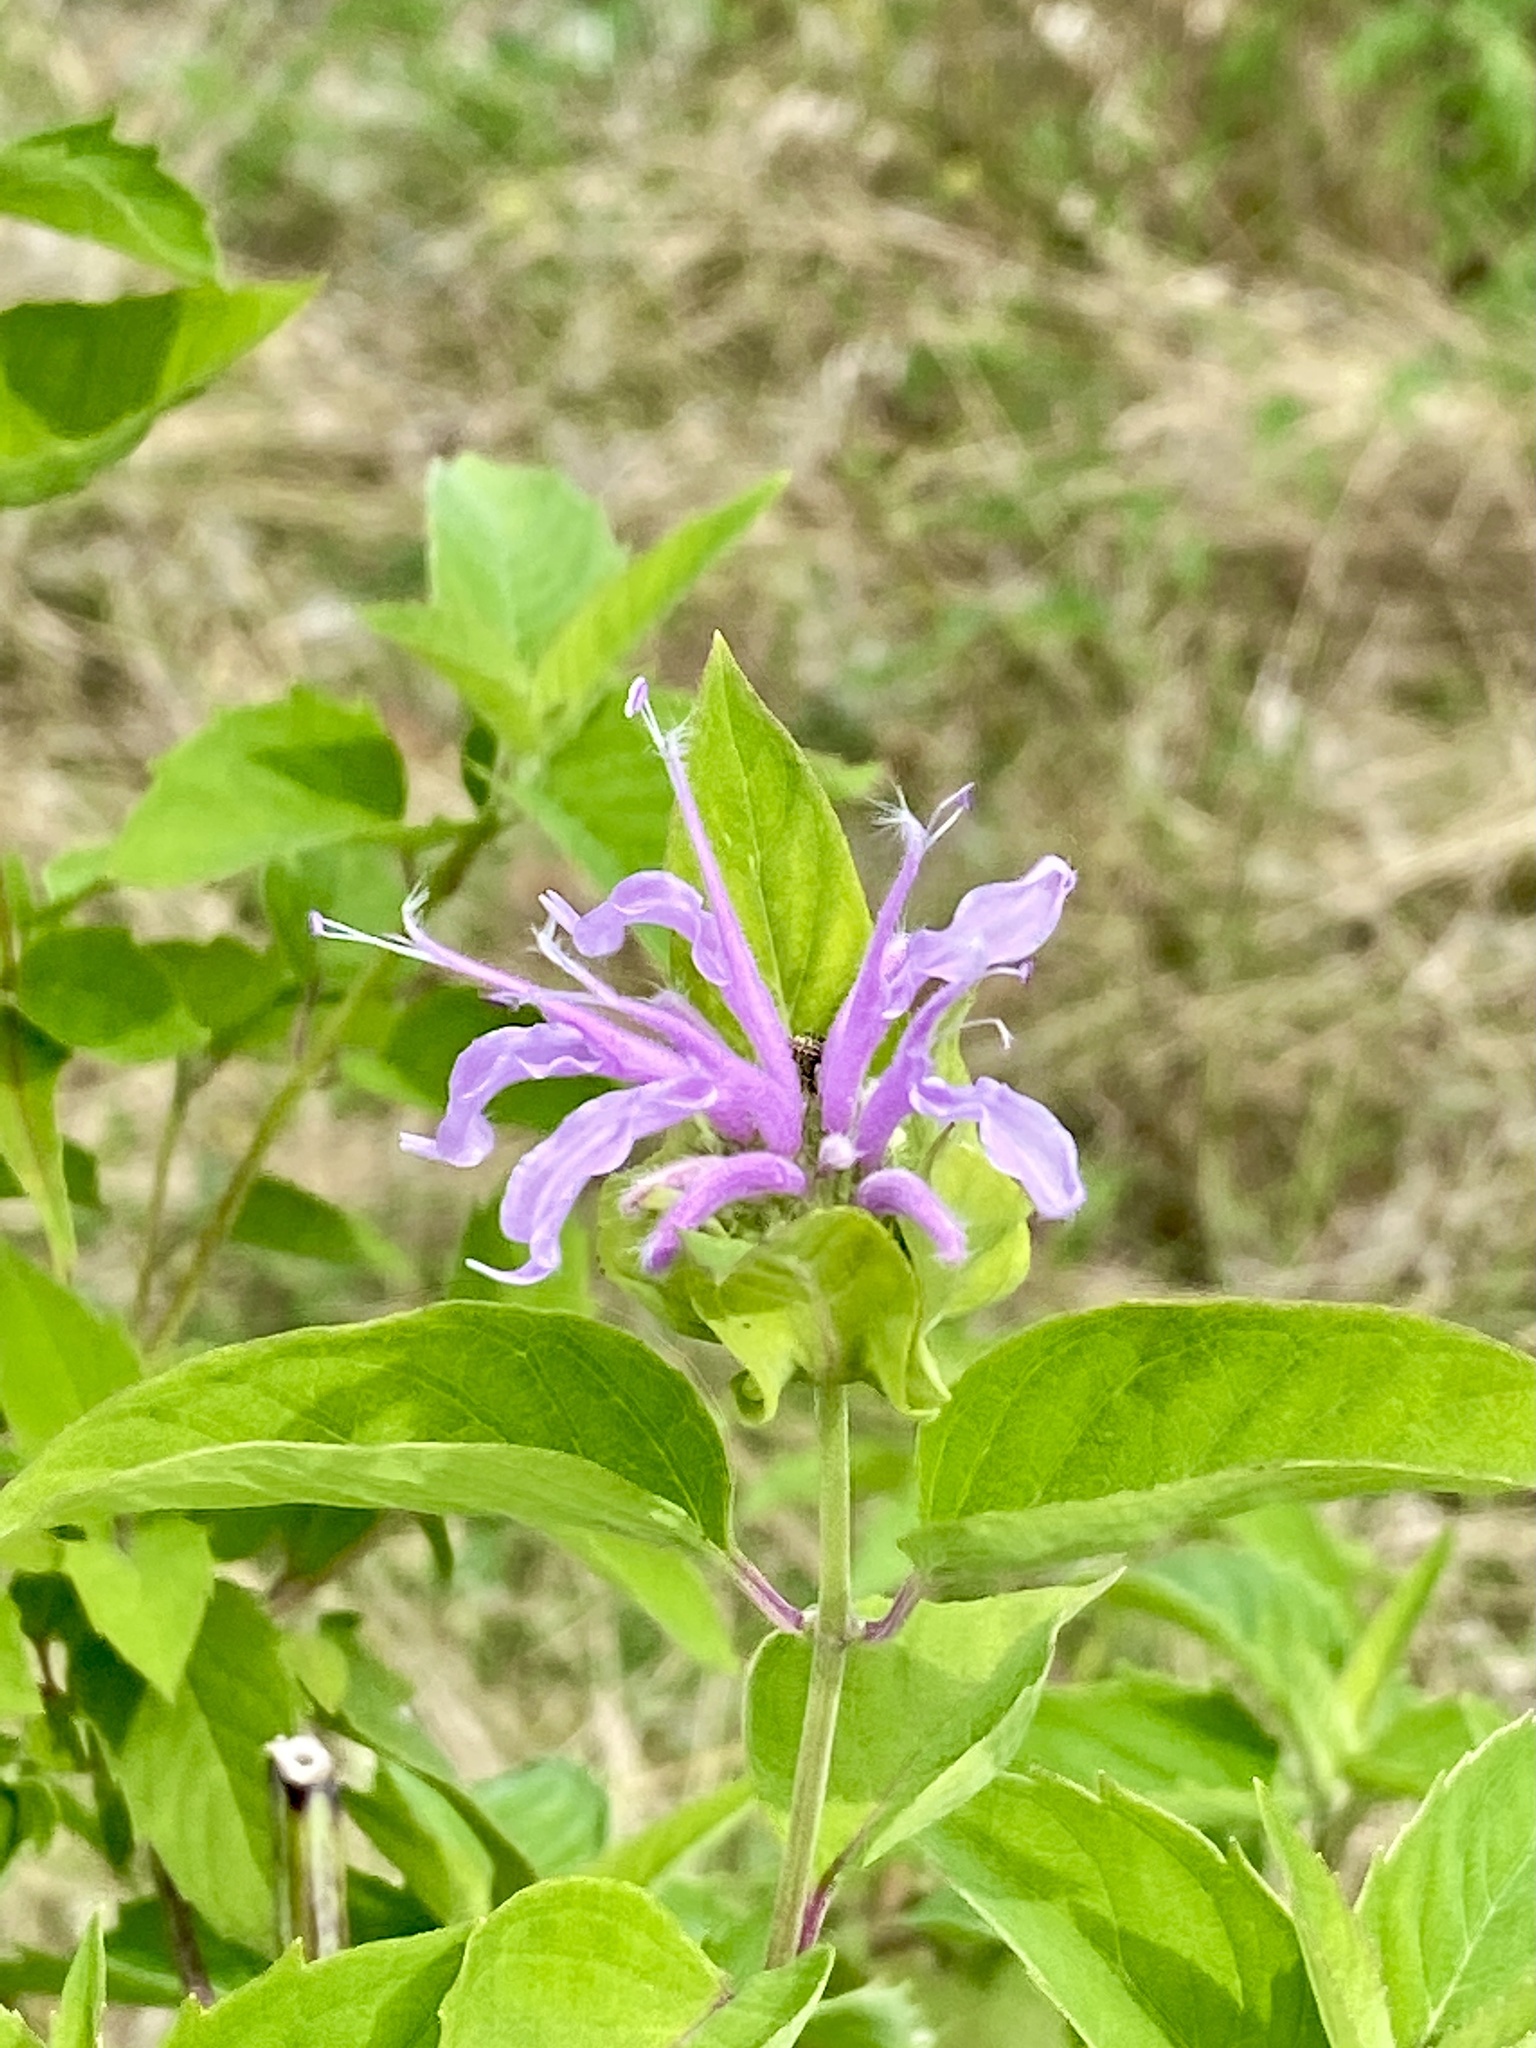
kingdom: Plantae
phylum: Tracheophyta
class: Magnoliopsida
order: Lamiales
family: Lamiaceae
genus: Monarda
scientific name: Monarda fistulosa
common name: Purple beebalm
